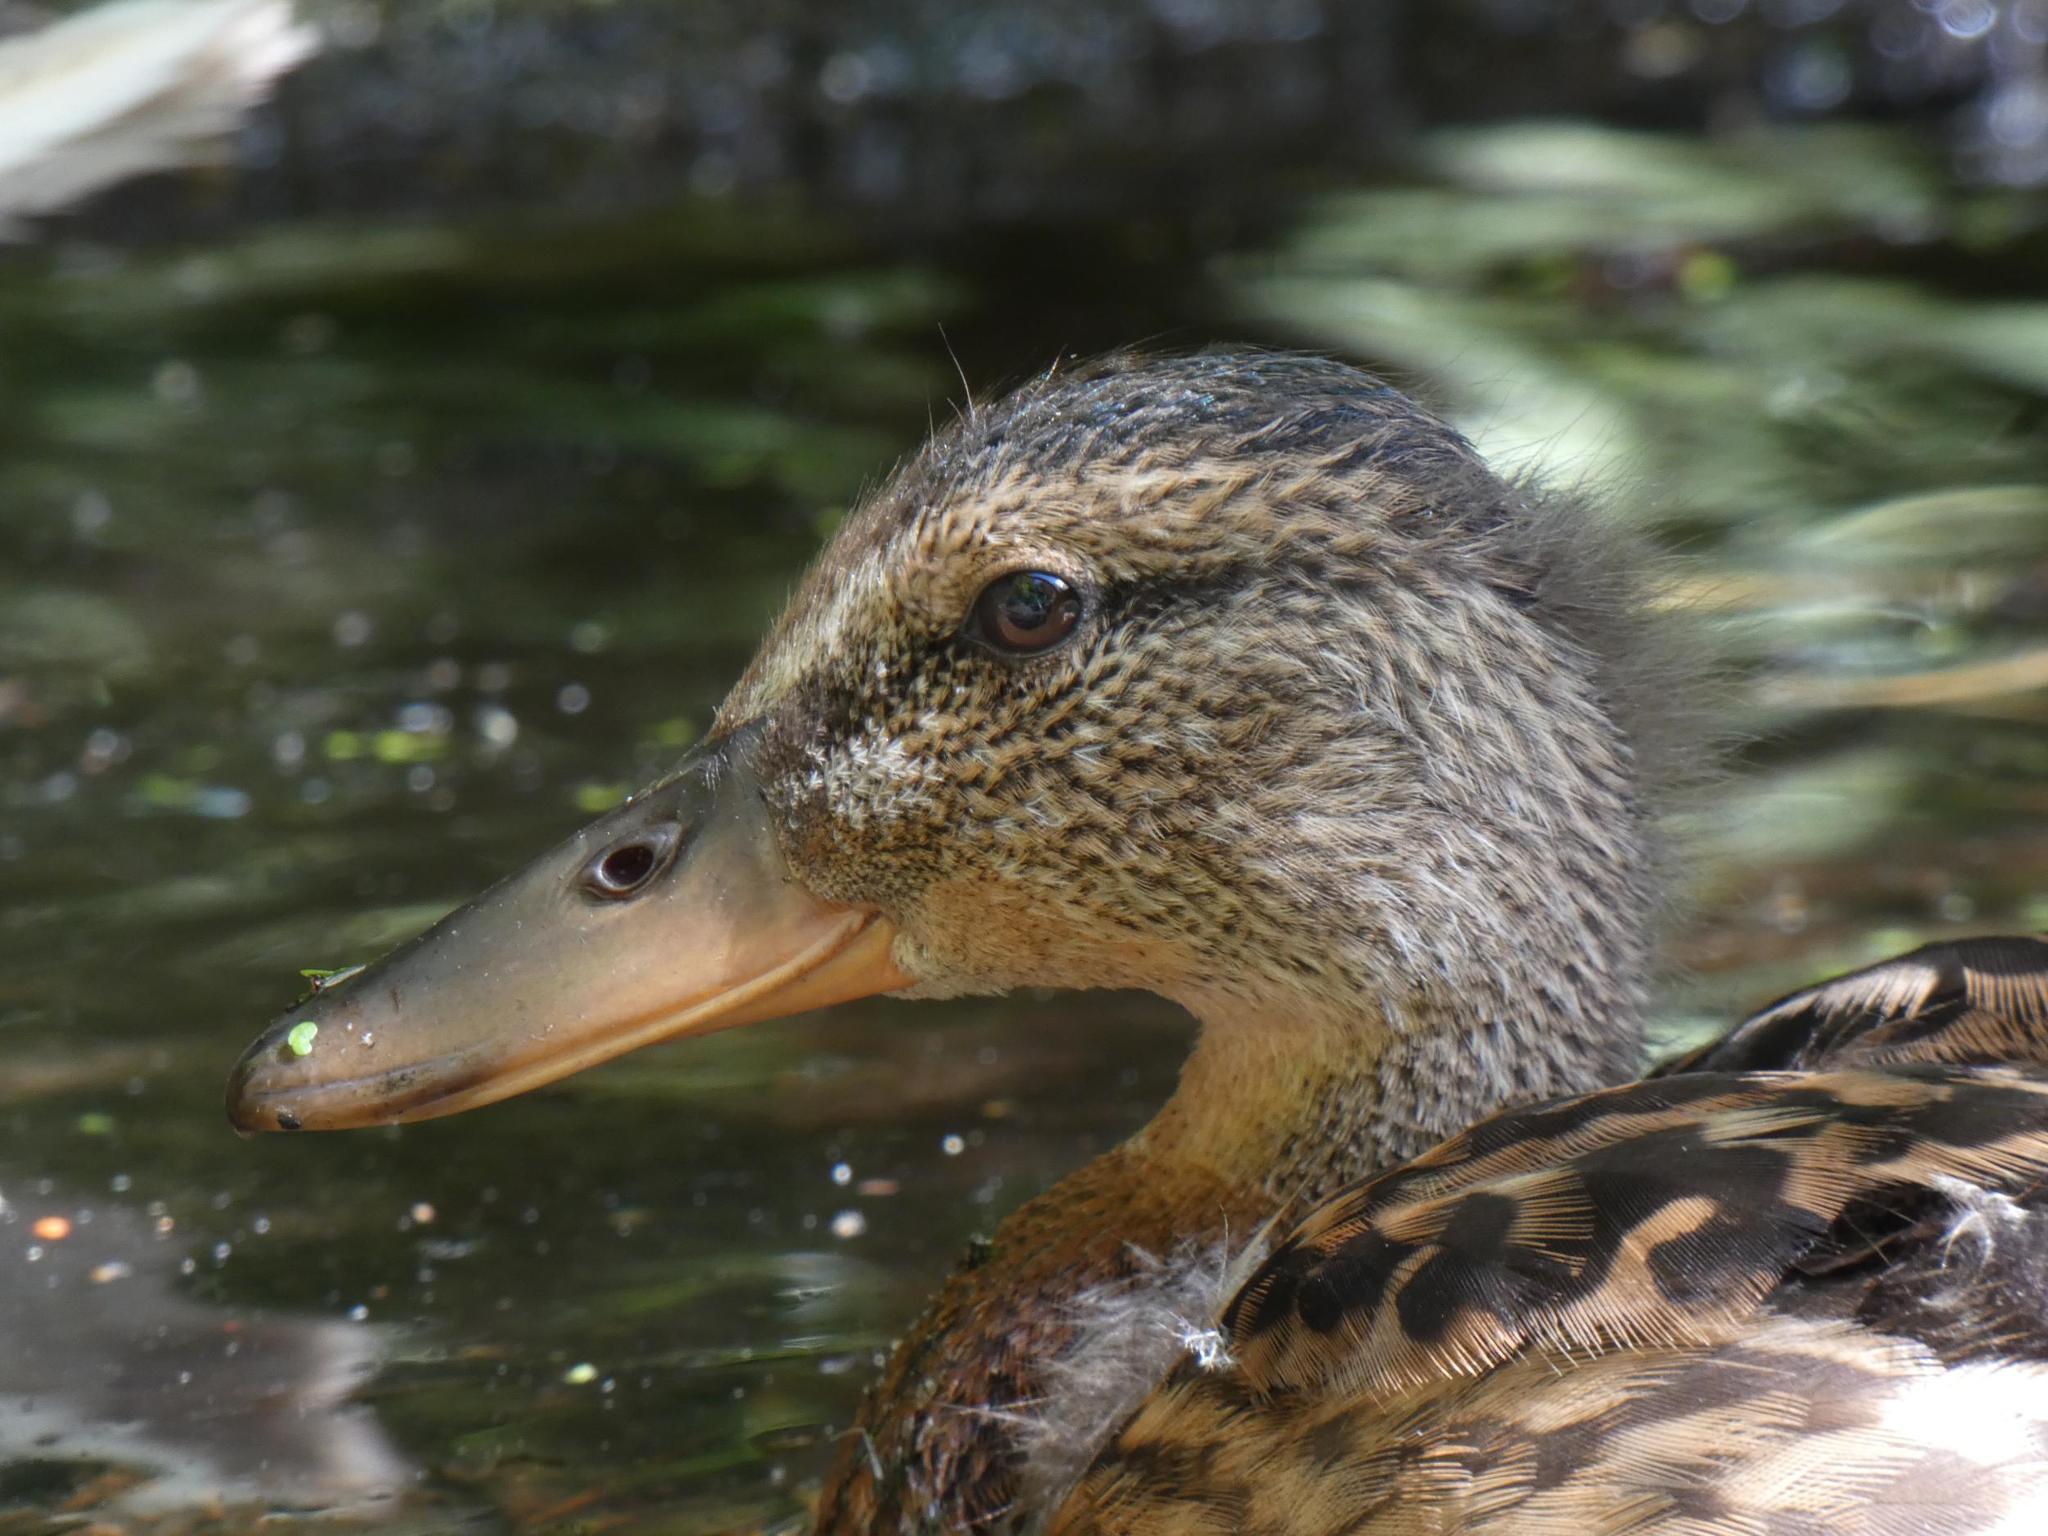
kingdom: Animalia
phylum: Chordata
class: Aves
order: Anseriformes
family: Anatidae
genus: Anas
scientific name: Anas platyrhynchos
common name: Mallard
